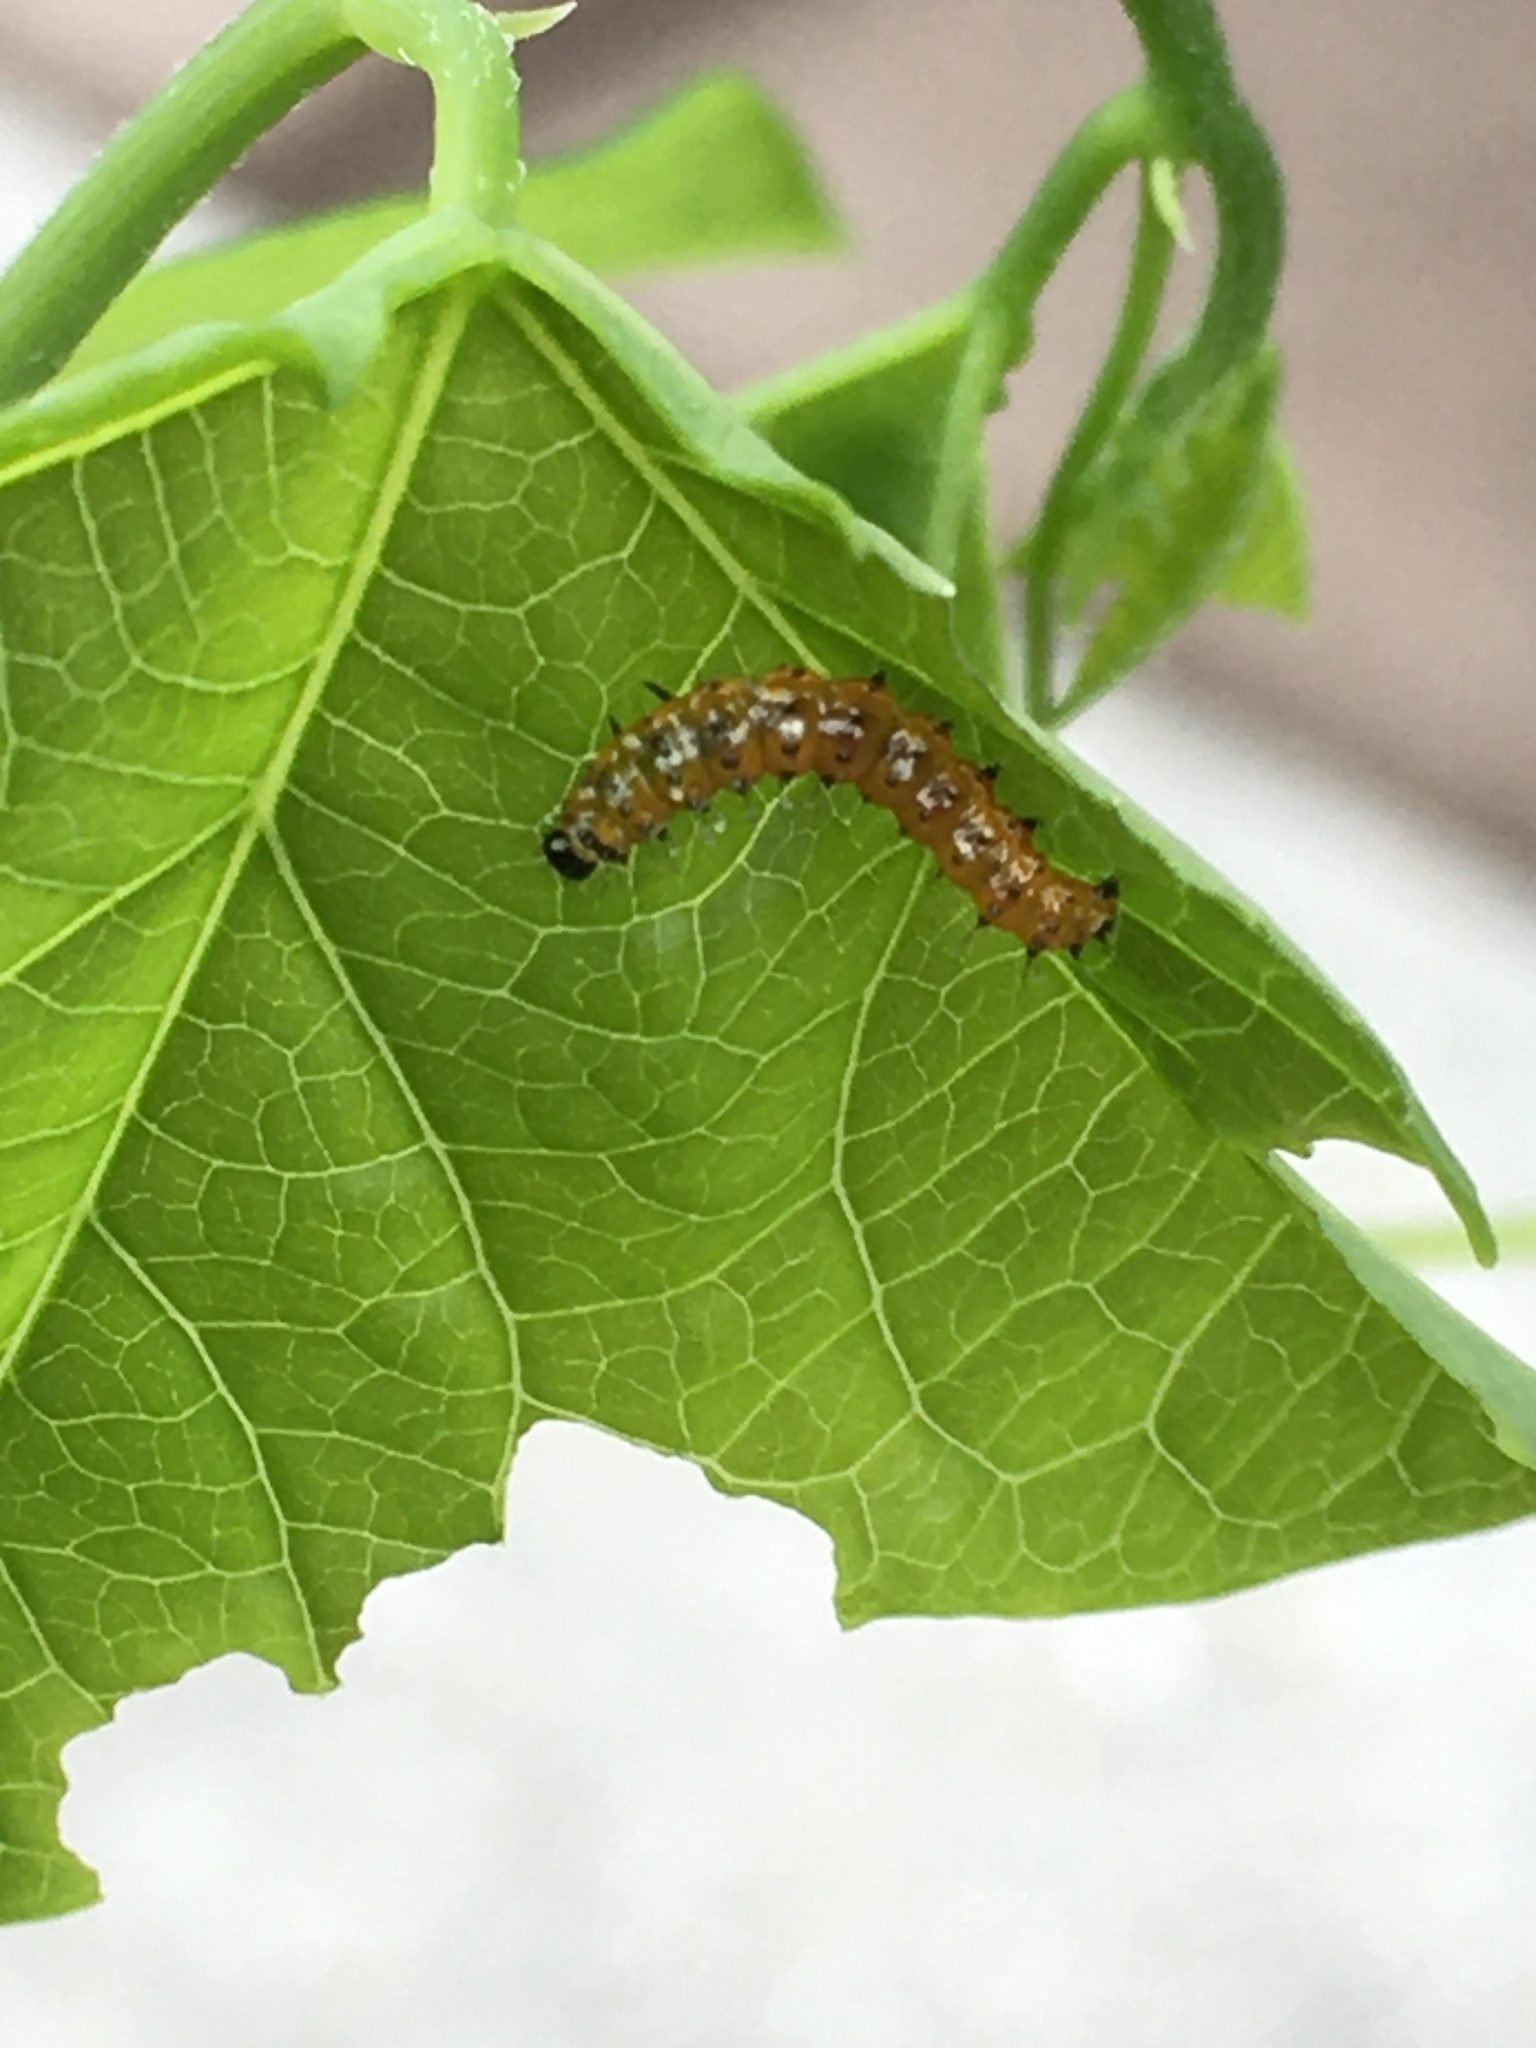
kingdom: Animalia
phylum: Arthropoda
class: Insecta
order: Lepidoptera
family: Nymphalidae
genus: Dione
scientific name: Dione vanillae
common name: Gulf fritillary
